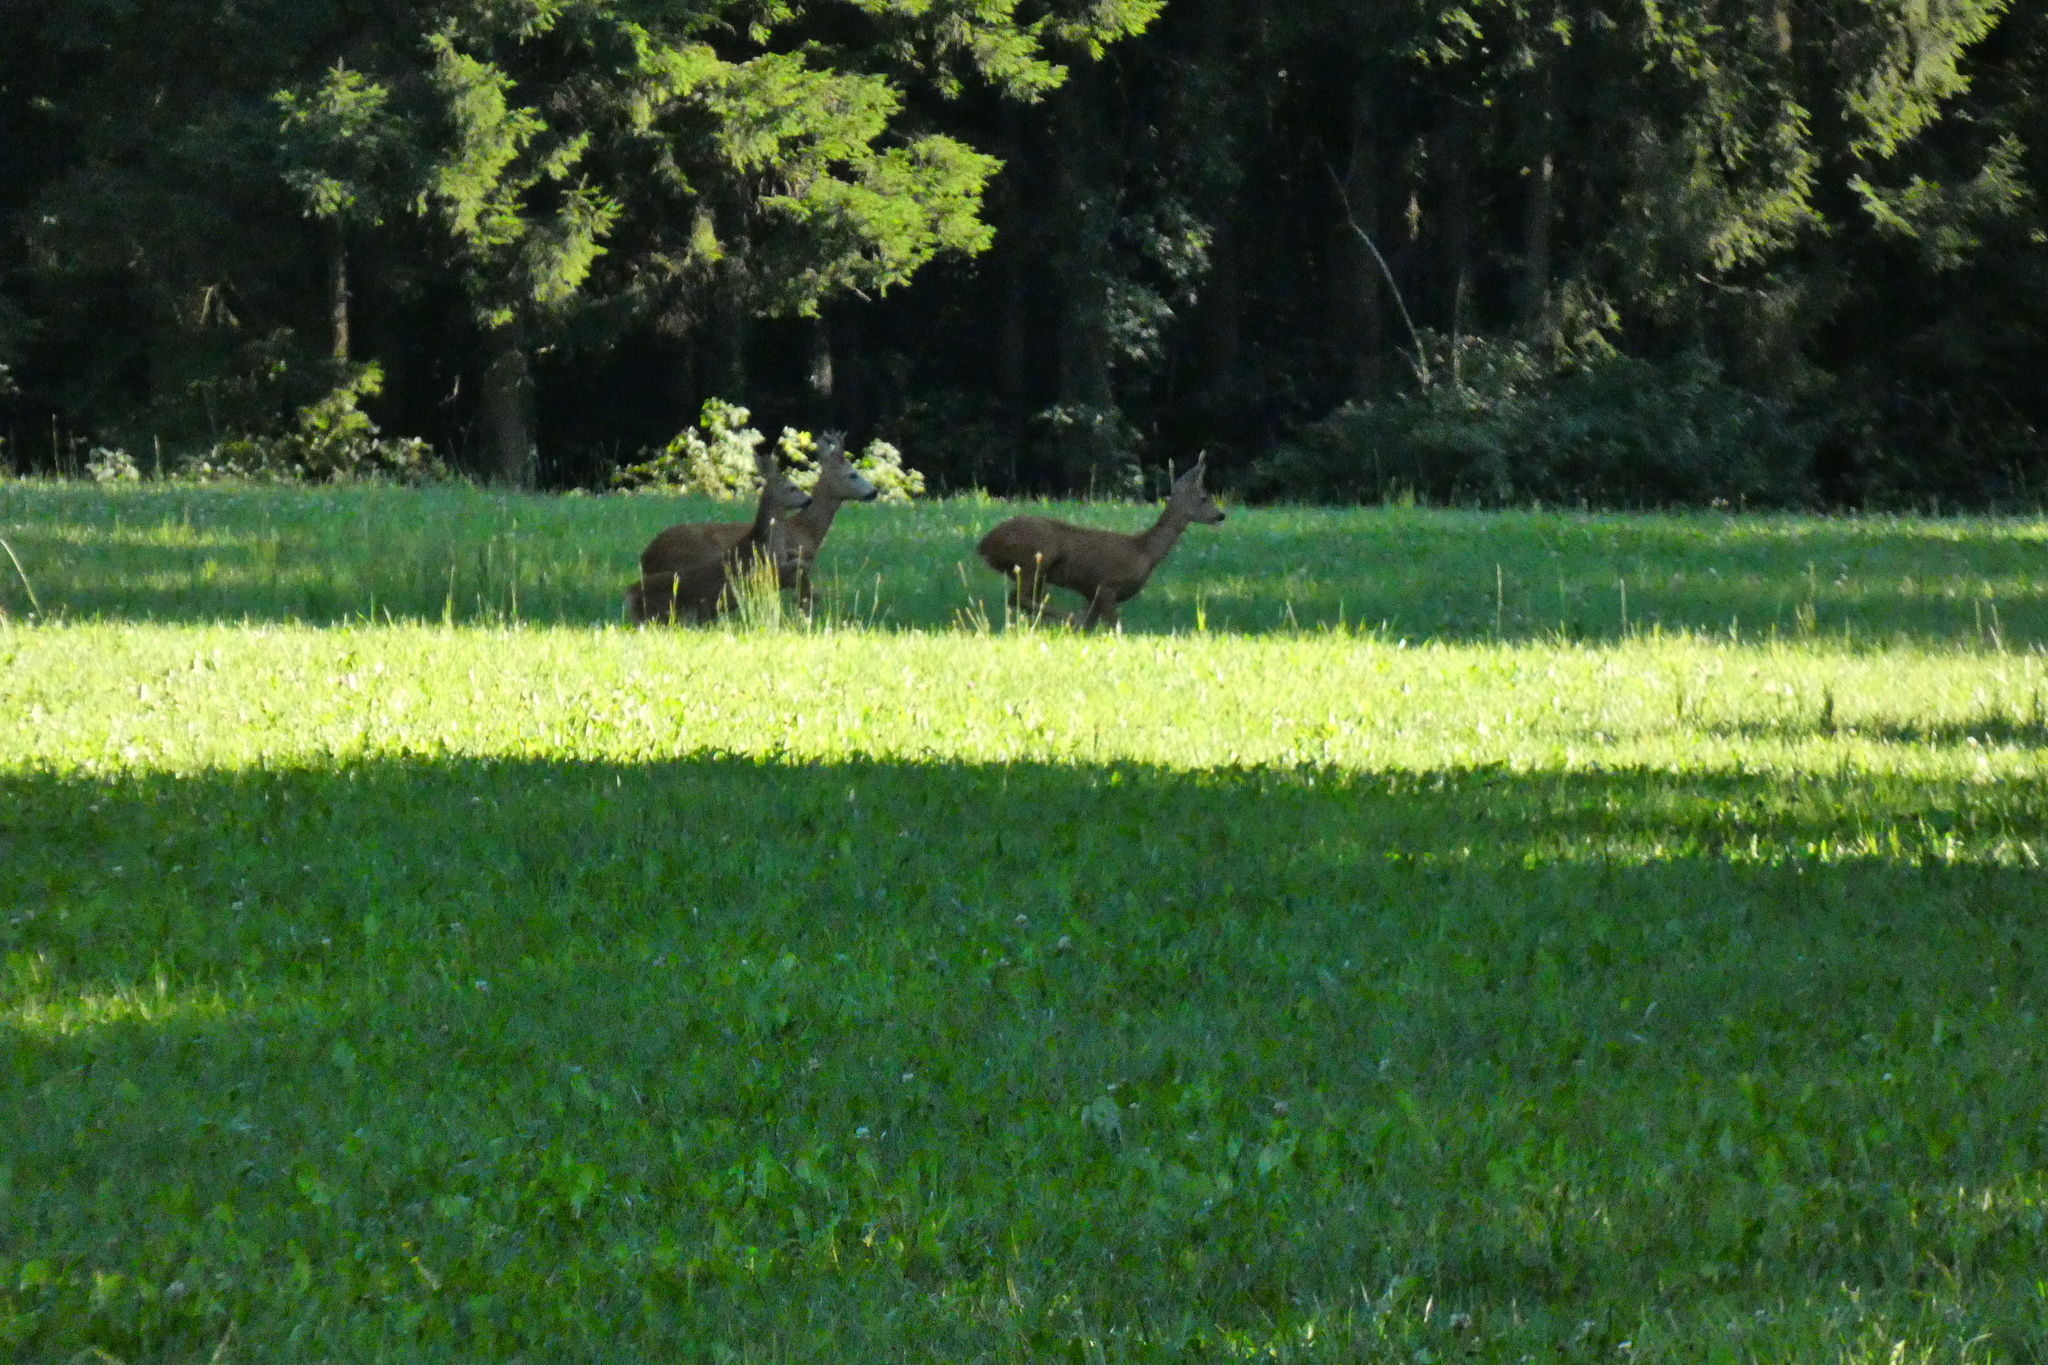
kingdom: Animalia
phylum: Chordata
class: Mammalia
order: Artiodactyla
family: Cervidae
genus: Capreolus
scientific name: Capreolus capreolus
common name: Western roe deer
